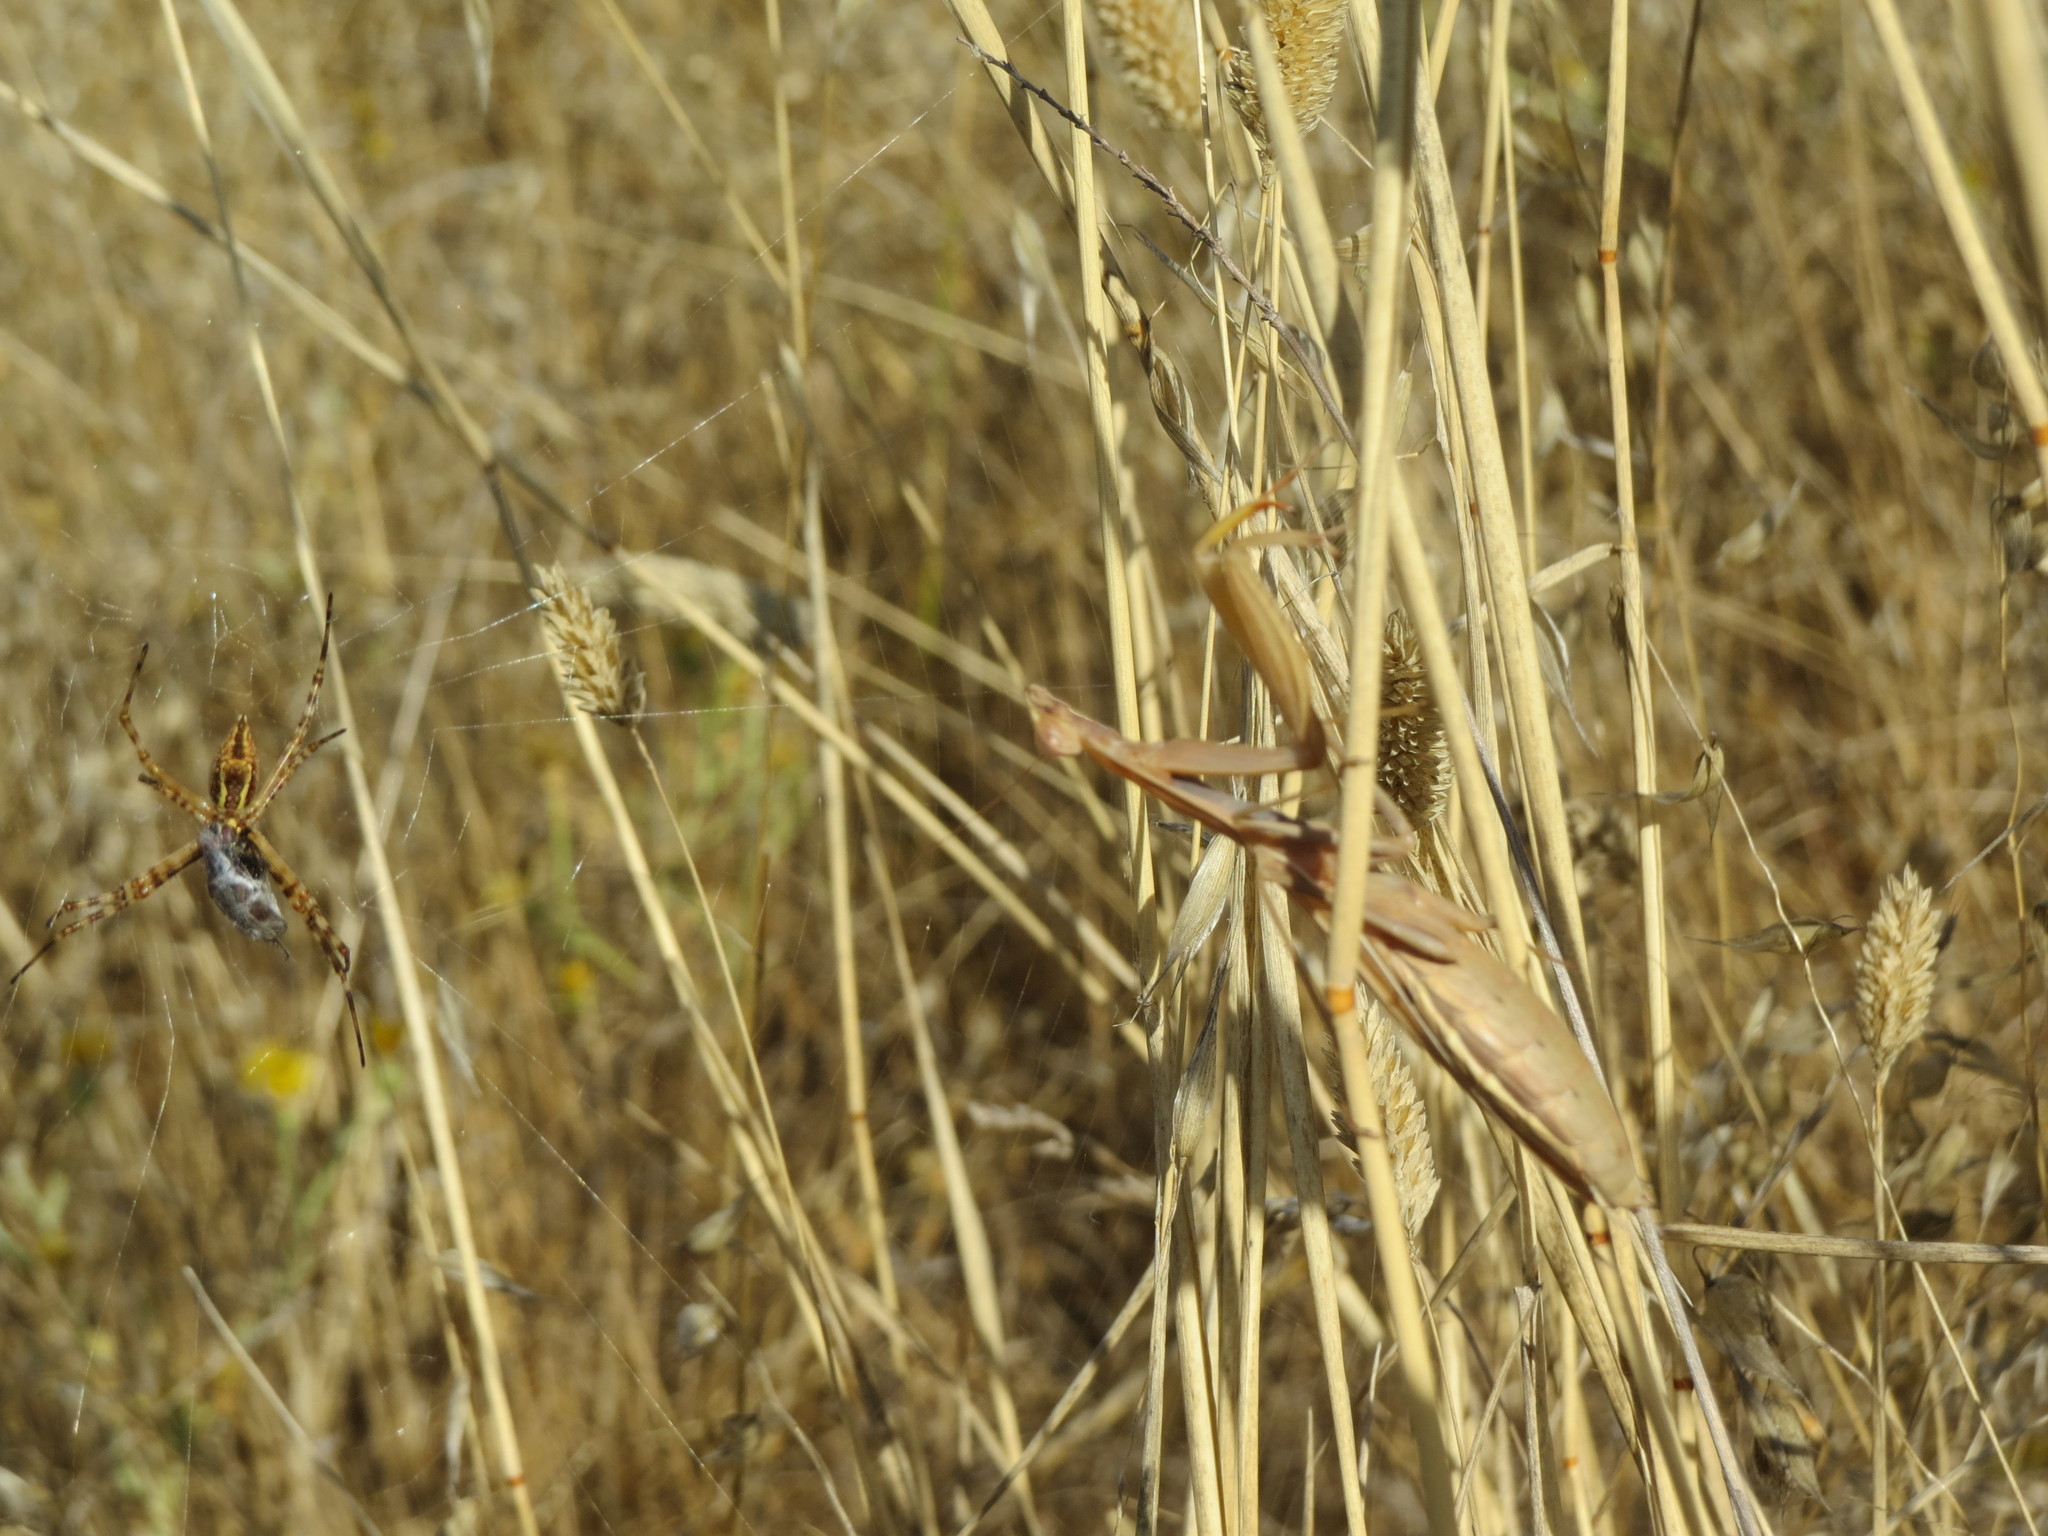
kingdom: Animalia
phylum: Arthropoda
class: Insecta
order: Mantodea
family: Mantidae
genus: Mantis
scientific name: Mantis religiosa
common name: Praying mantis
